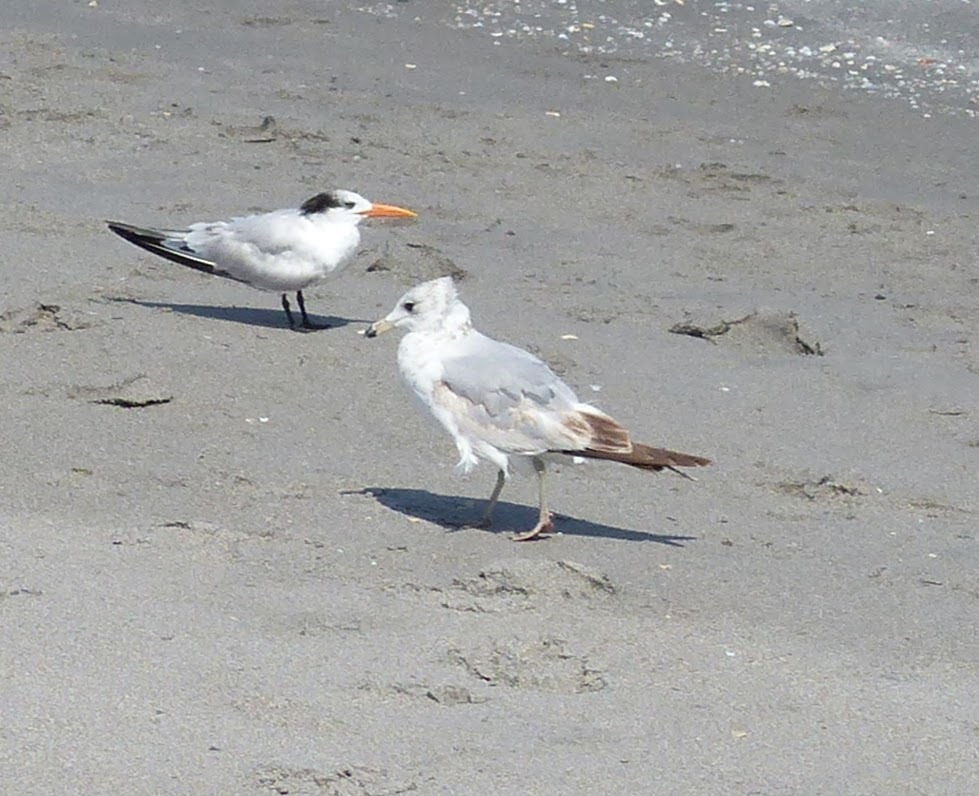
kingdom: Animalia
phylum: Chordata
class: Aves
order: Charadriiformes
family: Laridae
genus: Larus
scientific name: Larus delawarensis
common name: Ring-billed gull
